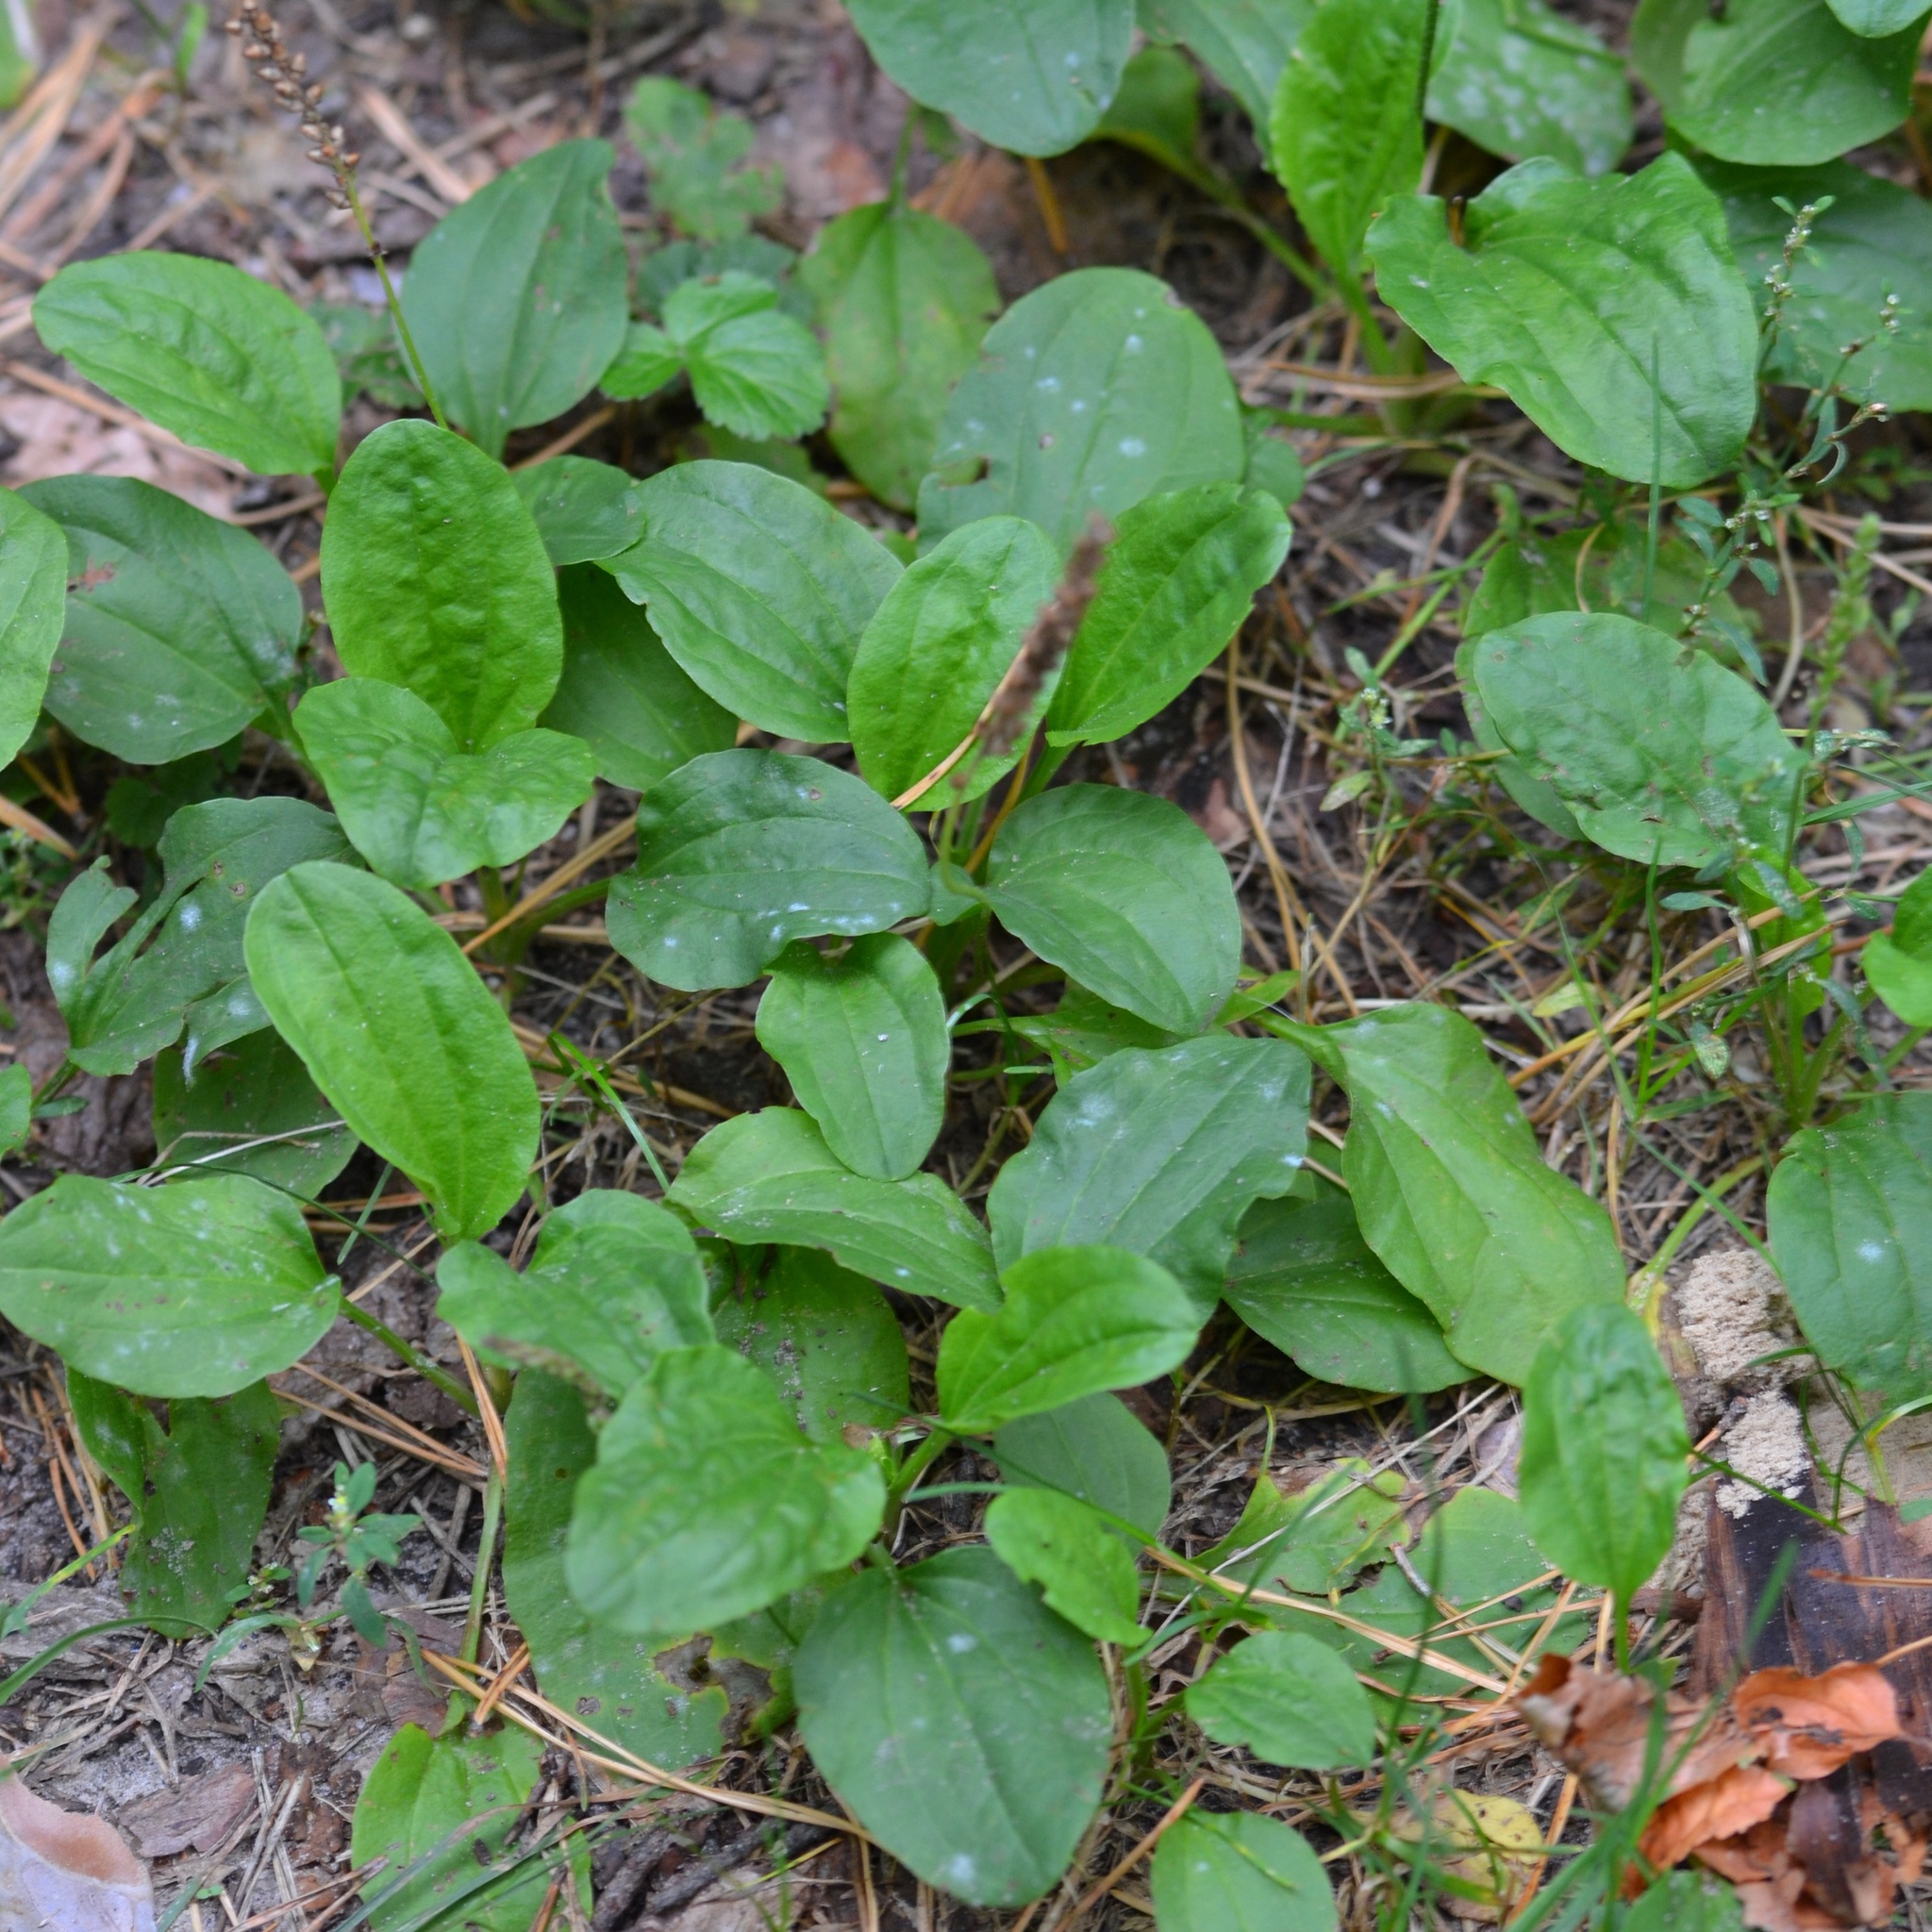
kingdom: Plantae
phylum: Tracheophyta
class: Magnoliopsida
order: Lamiales
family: Plantaginaceae
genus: Plantago
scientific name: Plantago major
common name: Common plantain
